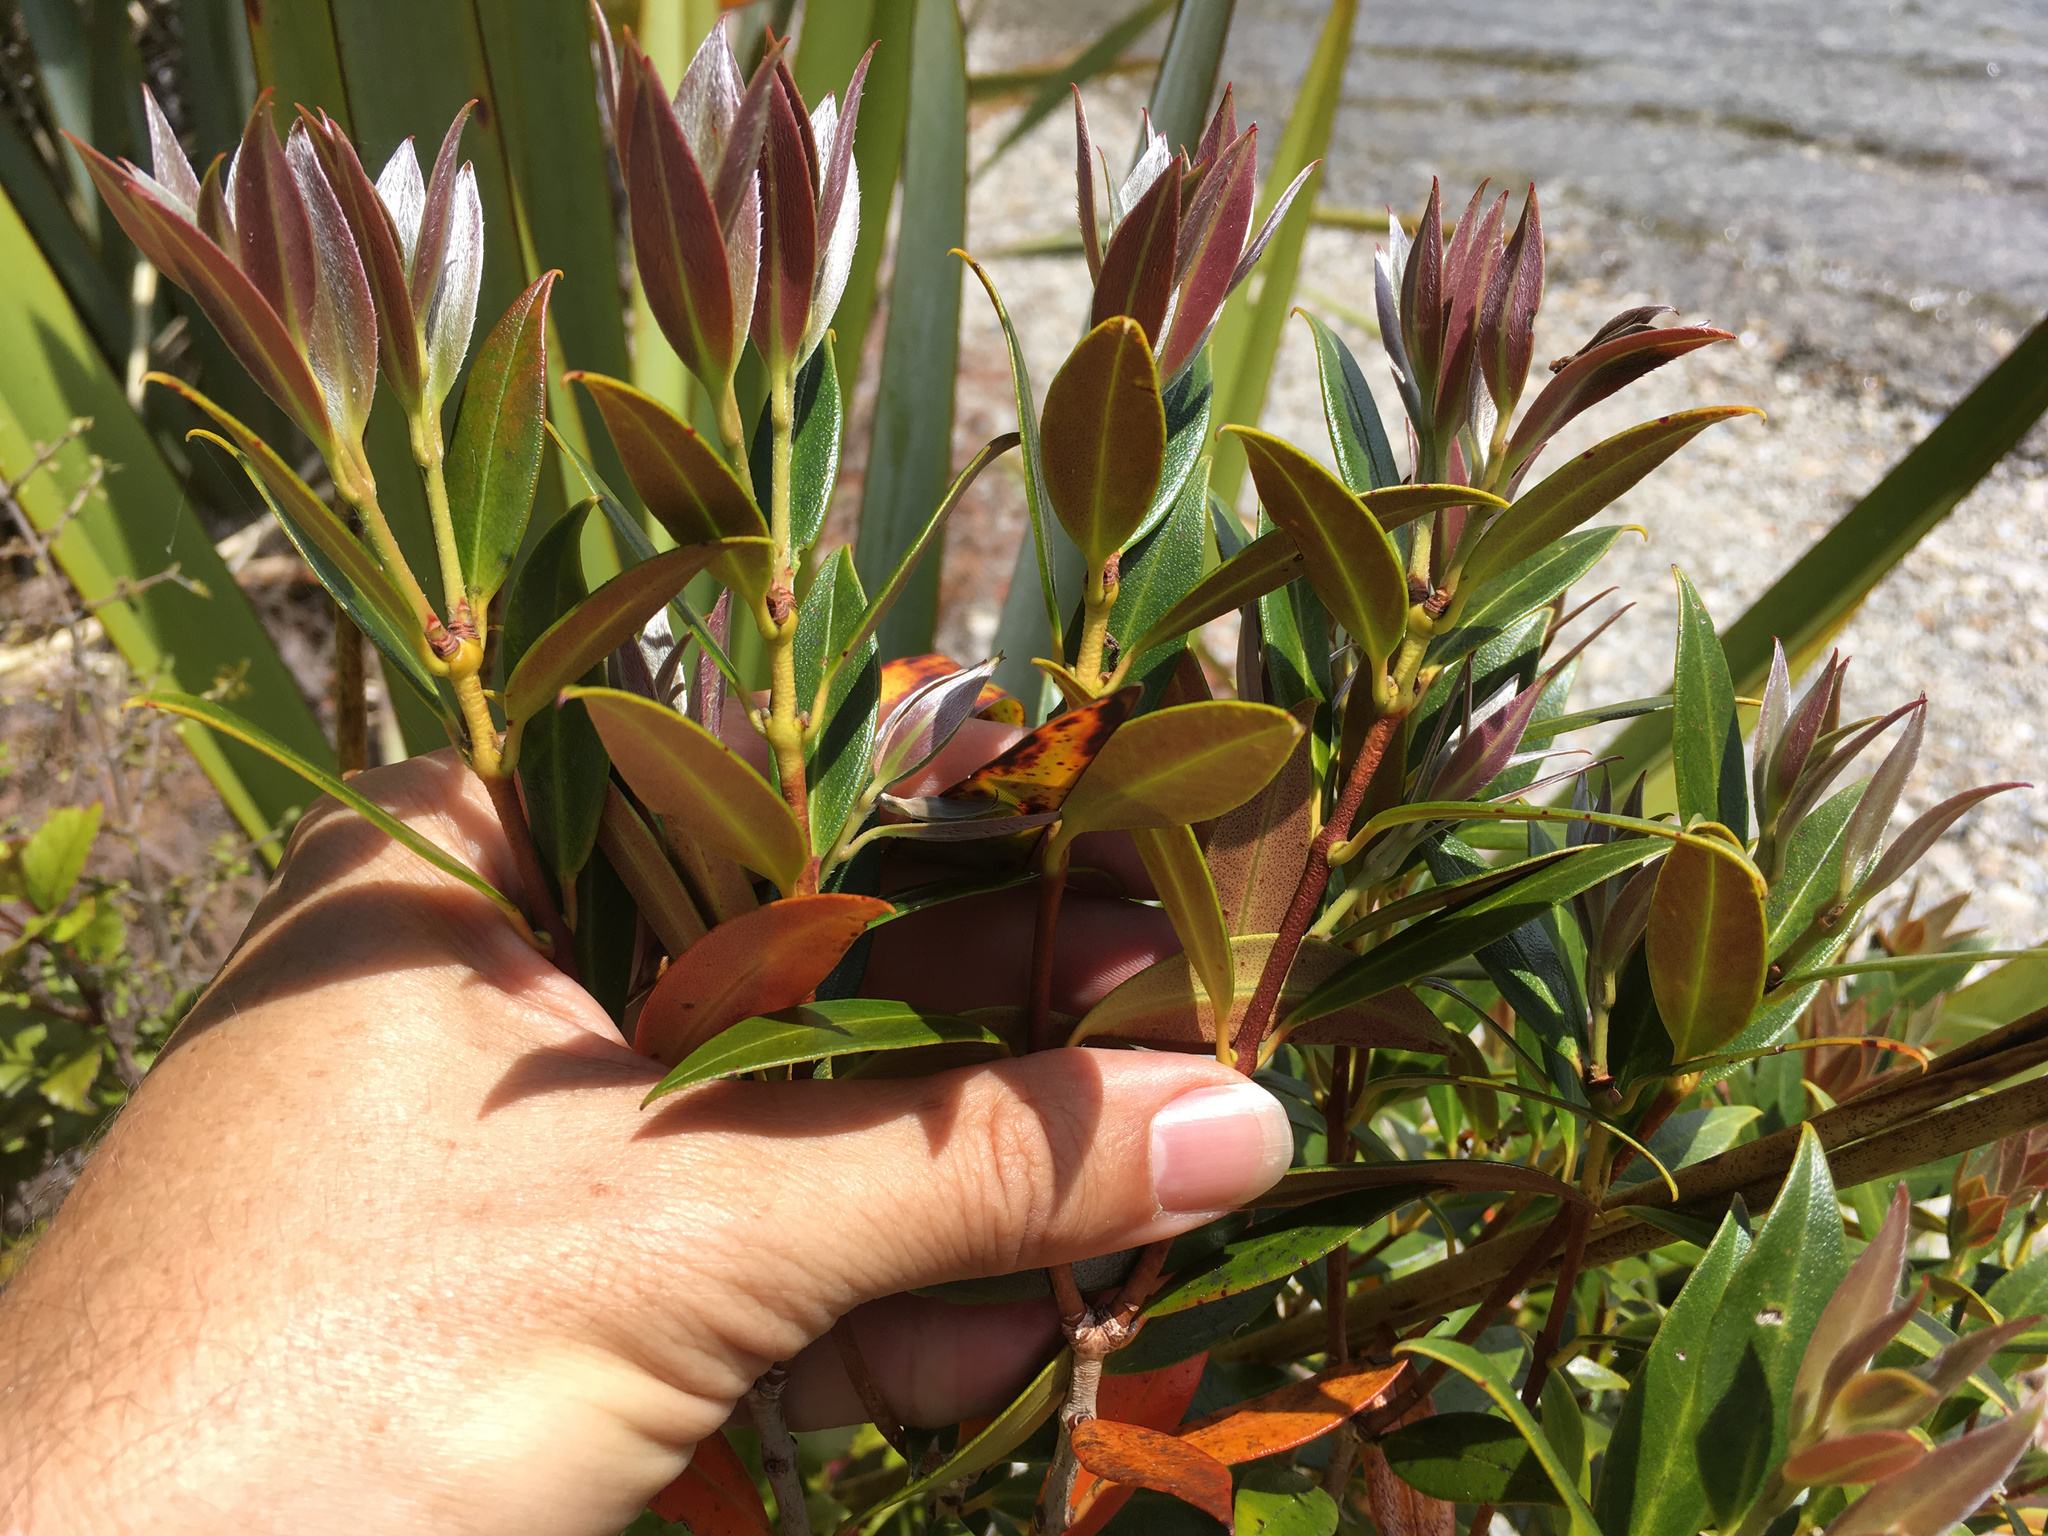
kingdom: Plantae
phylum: Tracheophyta
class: Magnoliopsida
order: Myrtales
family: Myrtaceae
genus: Metrosideros
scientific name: Metrosideros umbellata
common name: Southern rata
